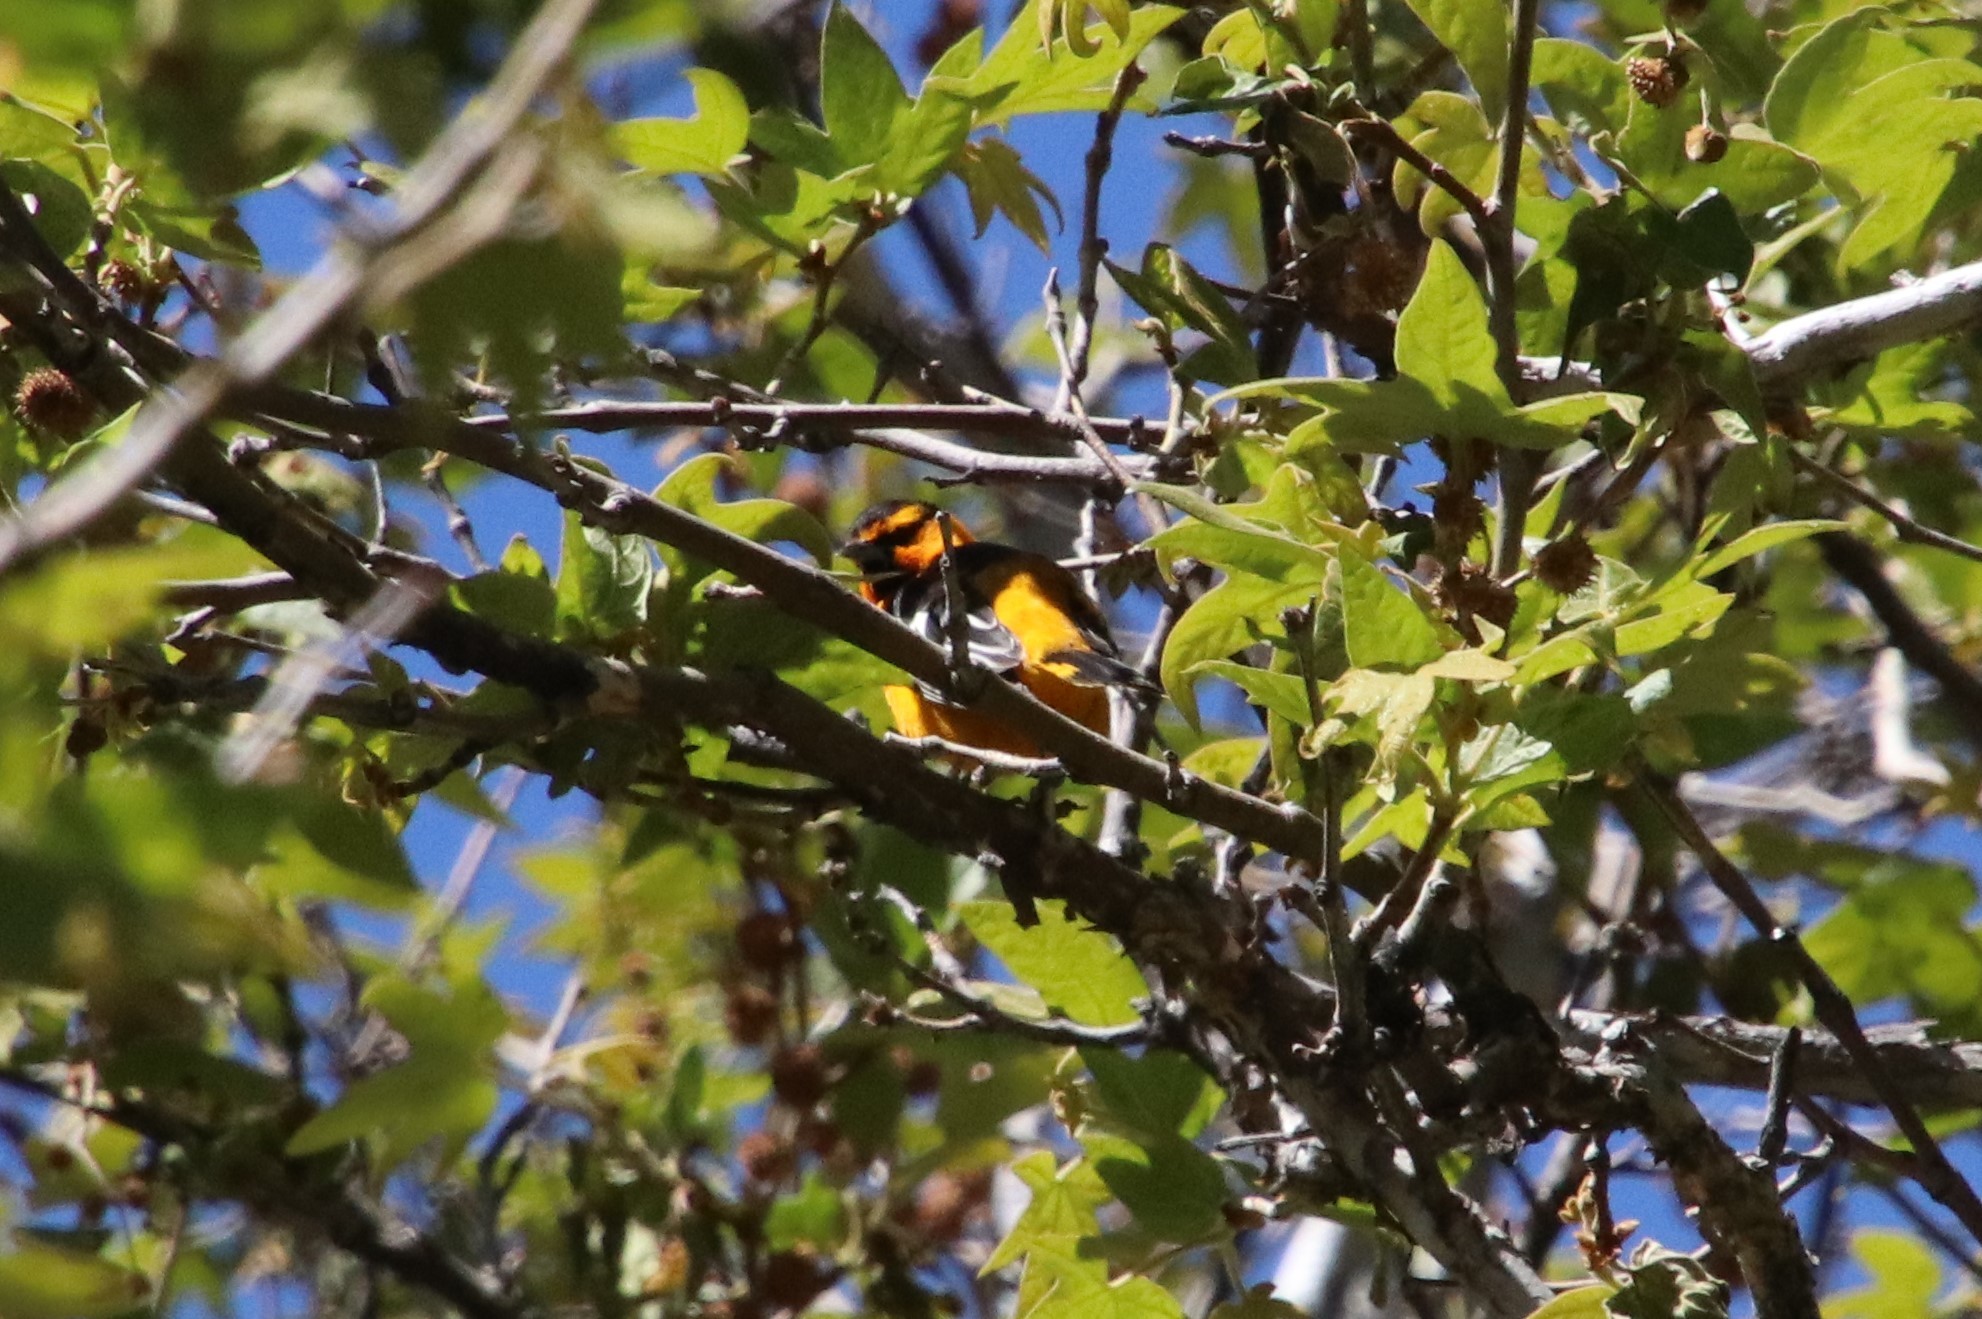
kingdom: Animalia
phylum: Chordata
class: Aves
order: Passeriformes
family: Icteridae
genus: Icterus
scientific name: Icterus bullockii
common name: Bullock's oriole
